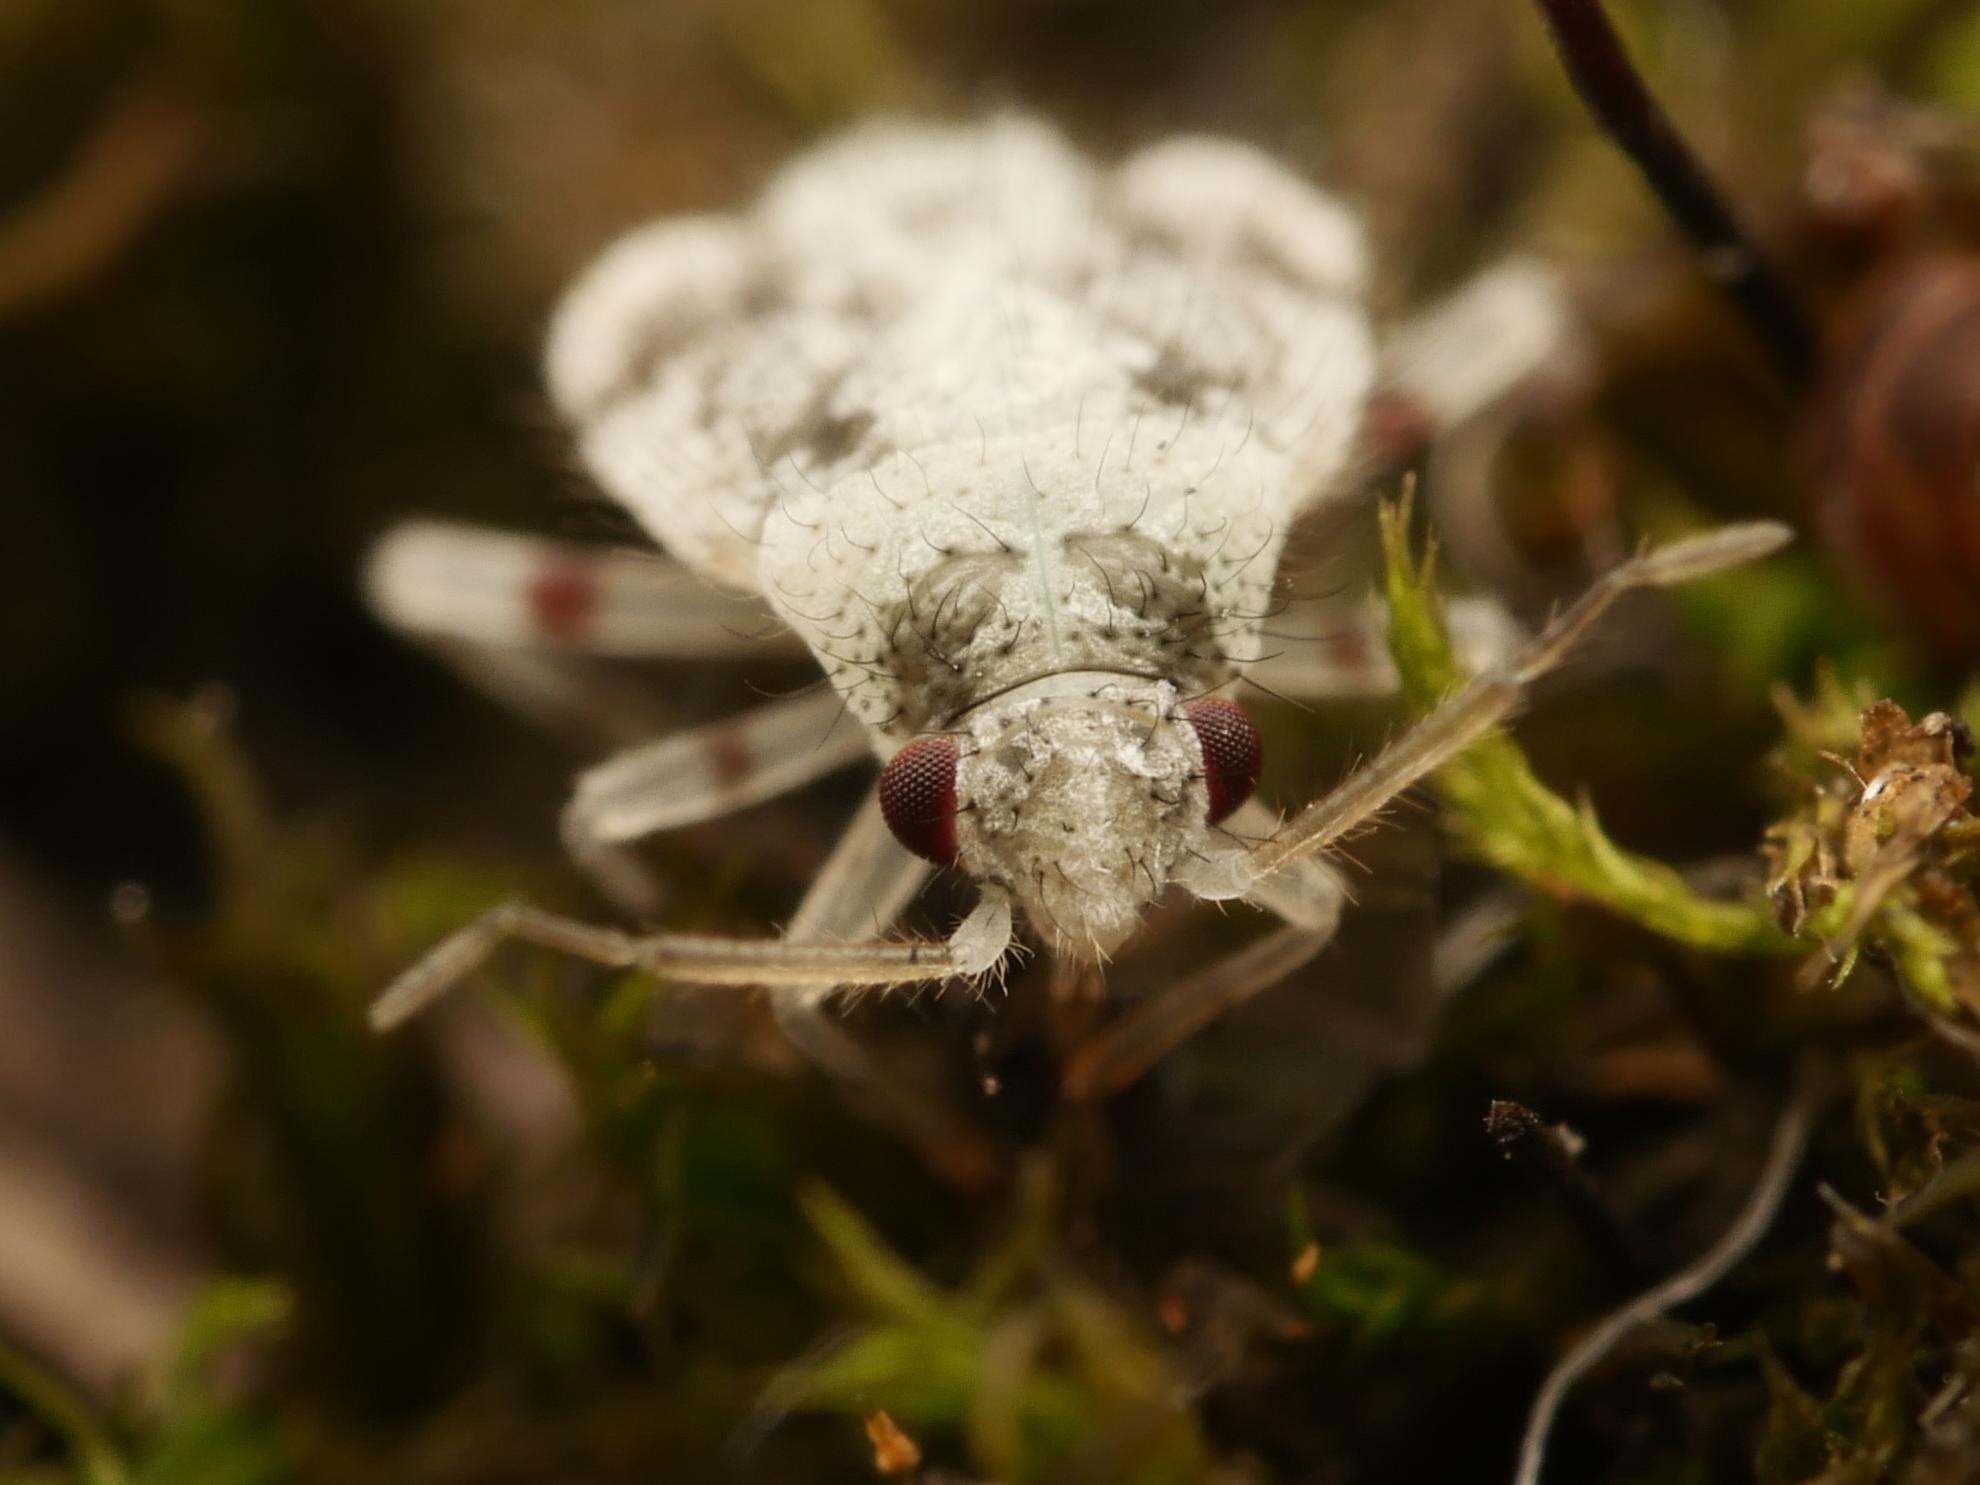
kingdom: Animalia
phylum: Arthropoda
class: Insecta
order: Hemiptera
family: Miridae
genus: Deraeocoris
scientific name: Deraeocoris lutescens
